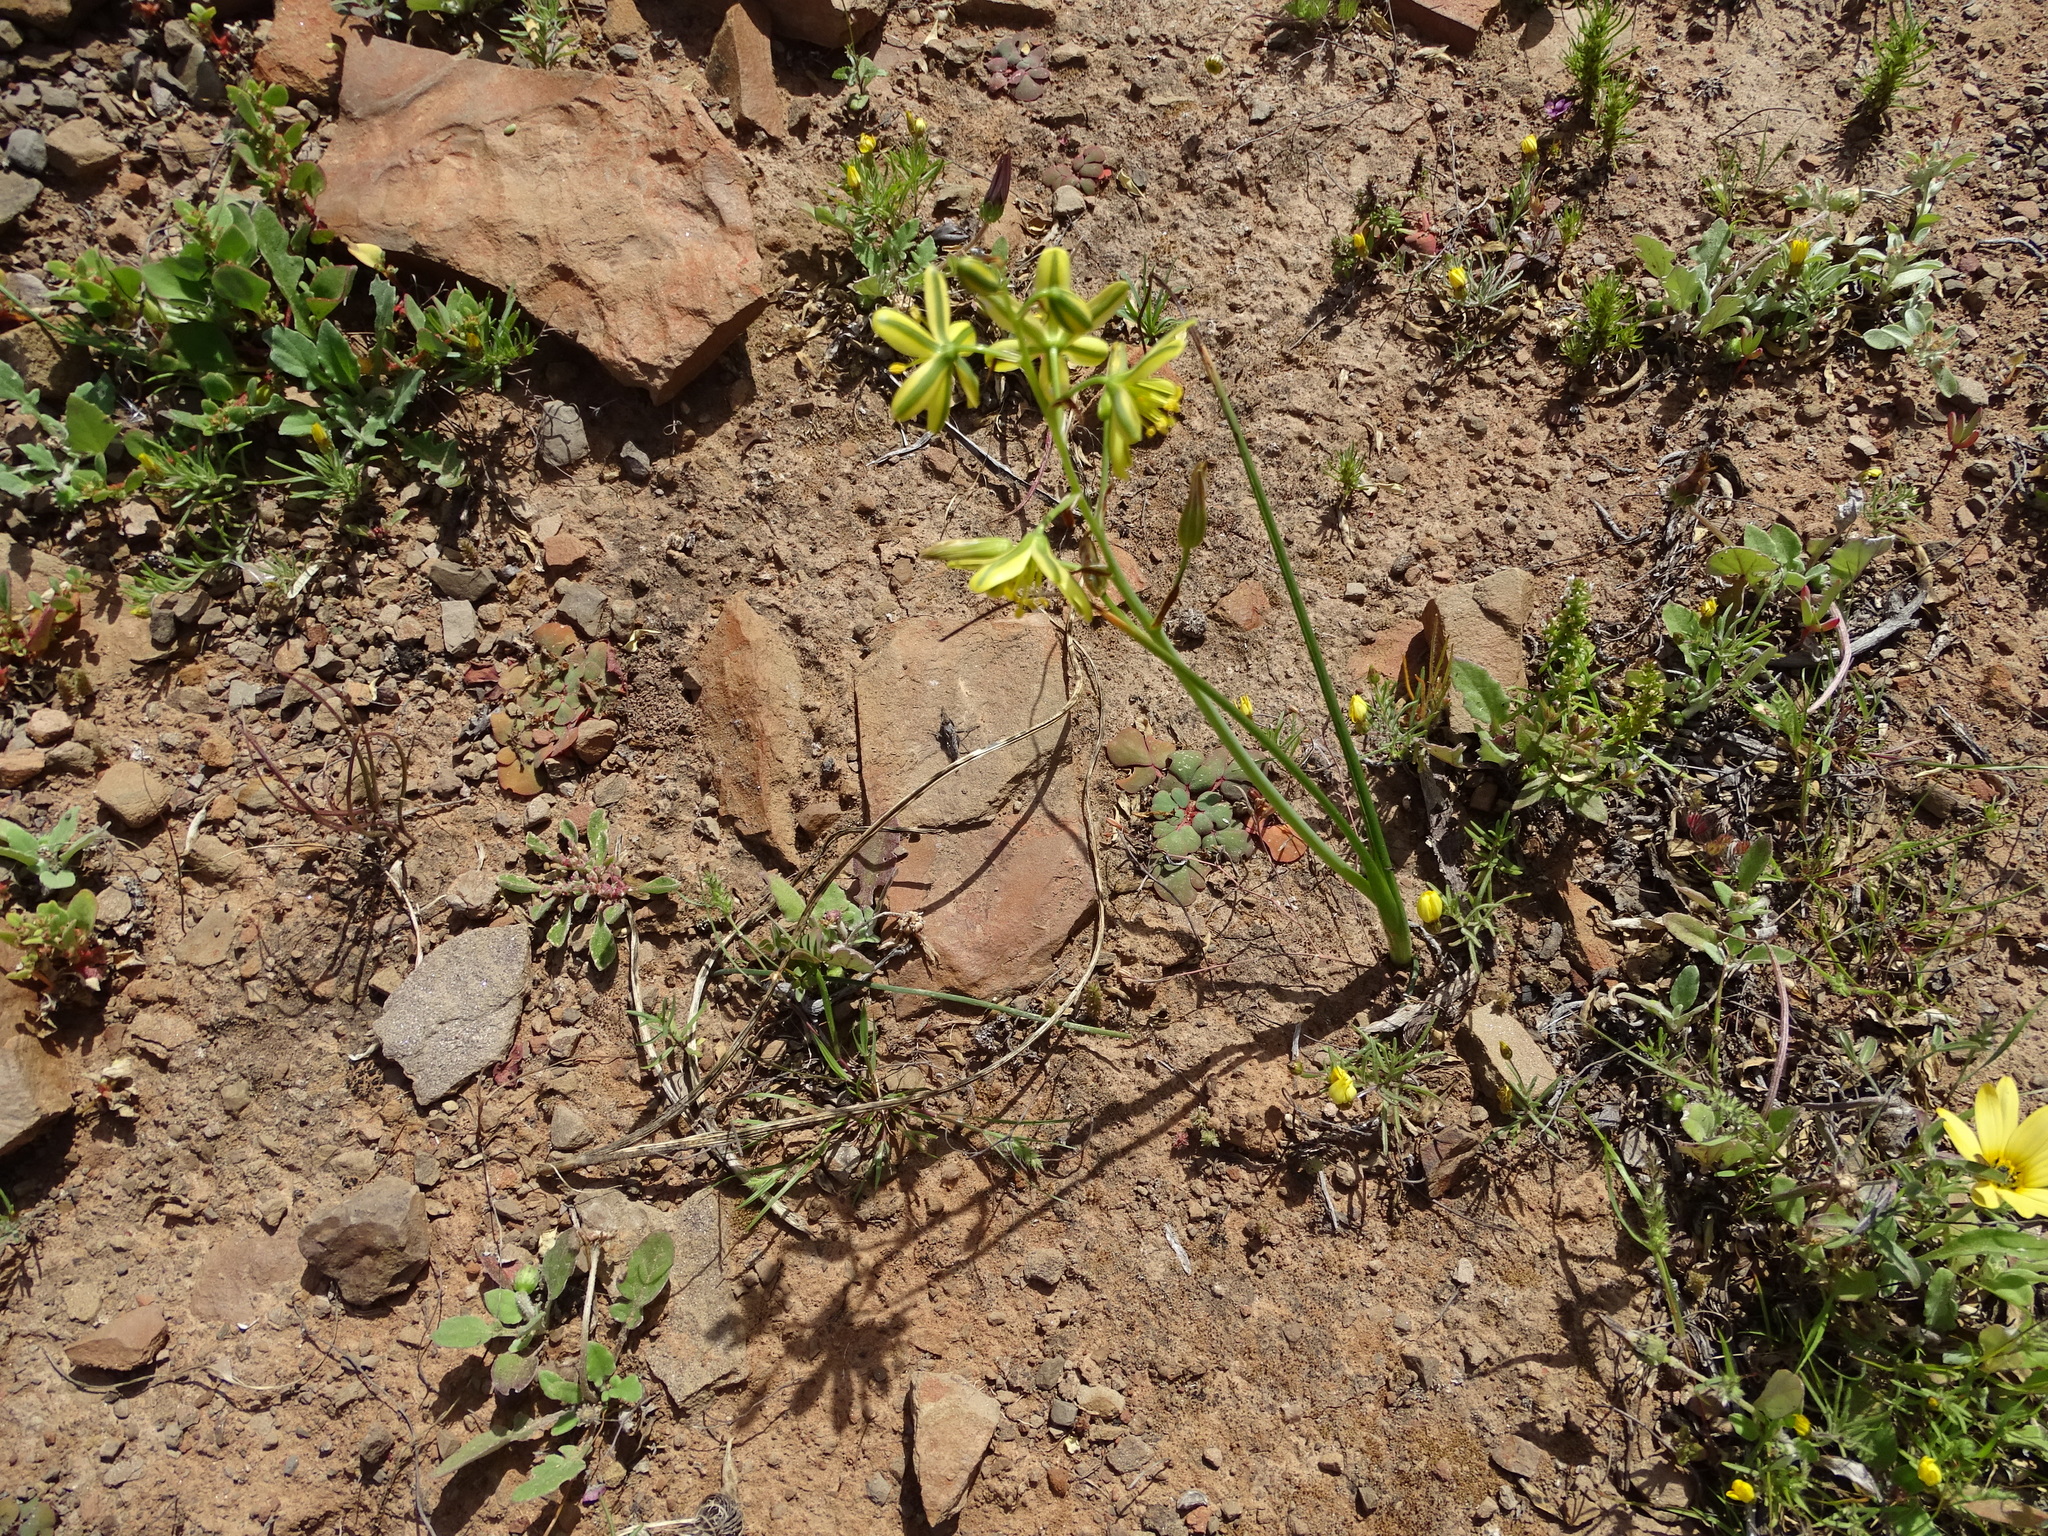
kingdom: Plantae
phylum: Tracheophyta
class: Liliopsida
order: Asparagales
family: Asparagaceae
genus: Albuca
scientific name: Albuca suaveolens
